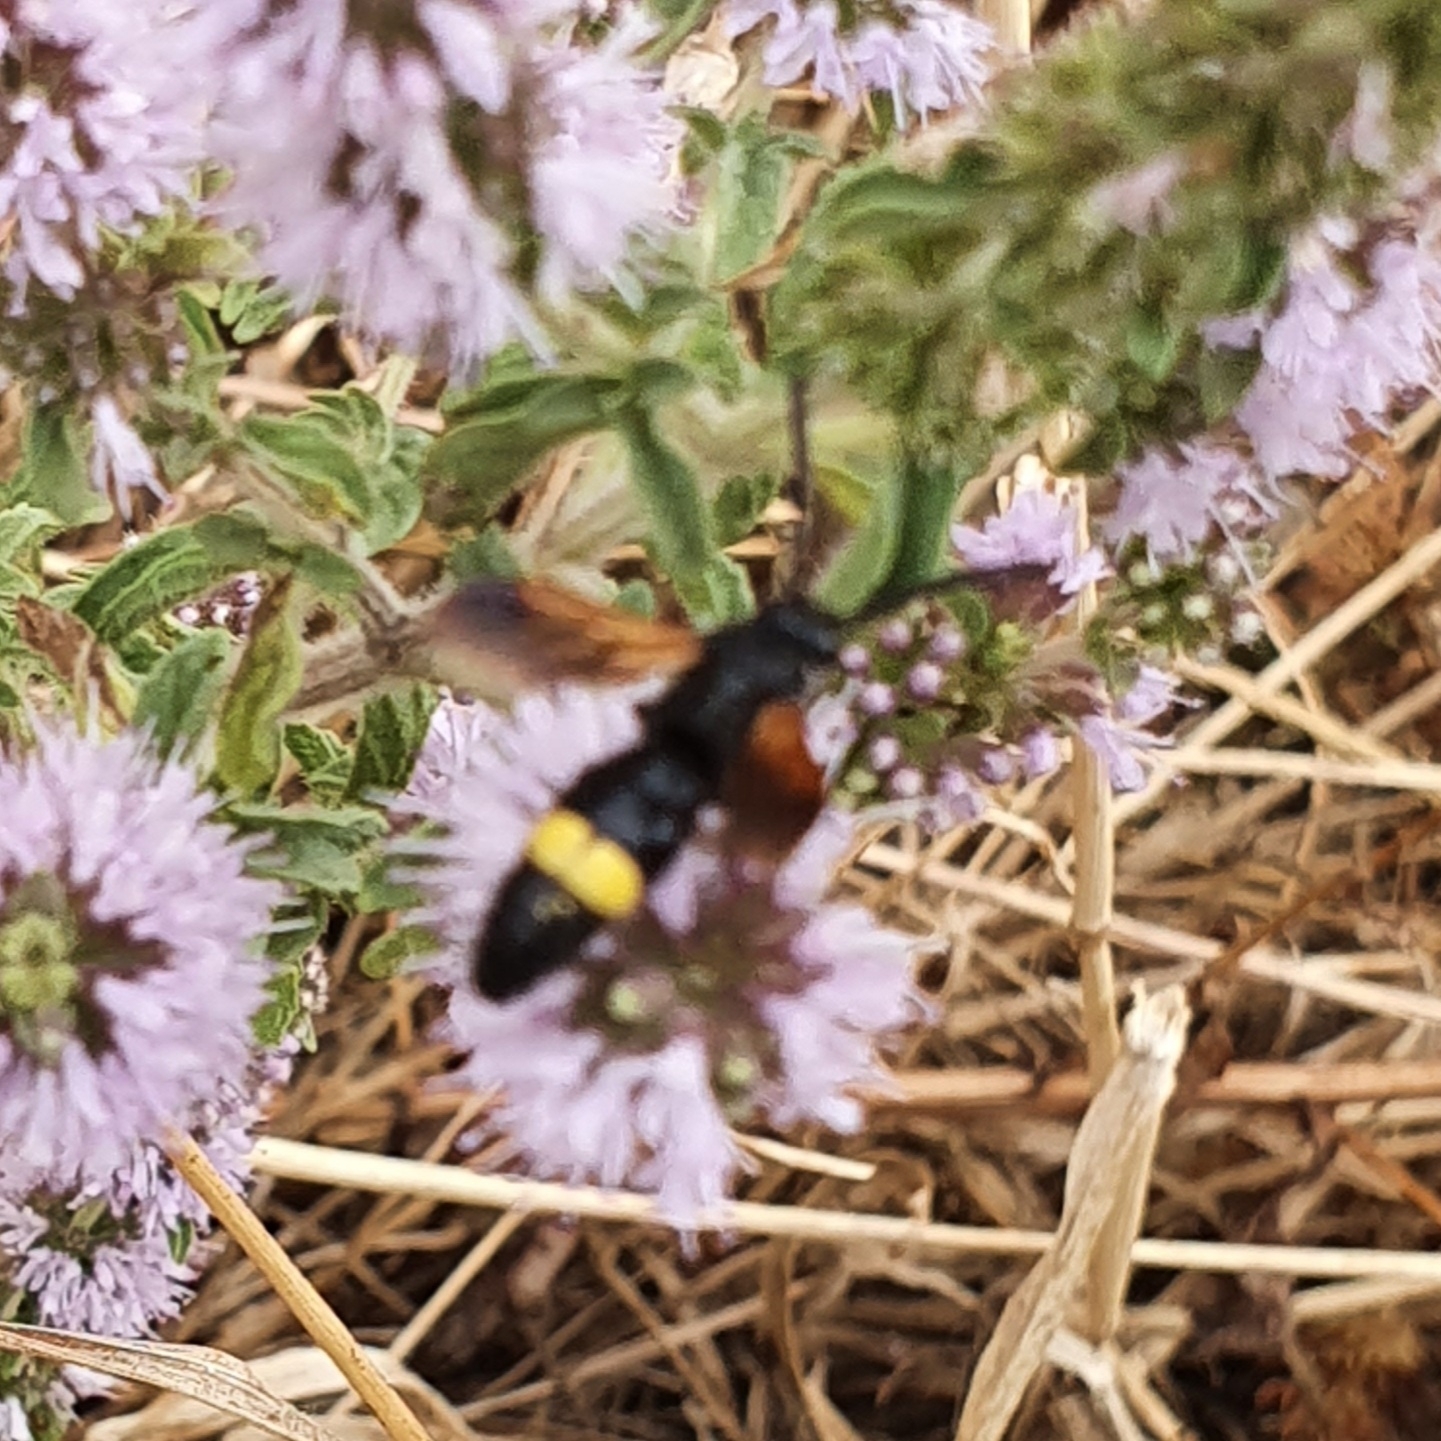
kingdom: Animalia
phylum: Arthropoda
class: Insecta
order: Hymenoptera
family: Scoliidae
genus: Scolia
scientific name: Scolia hirta
